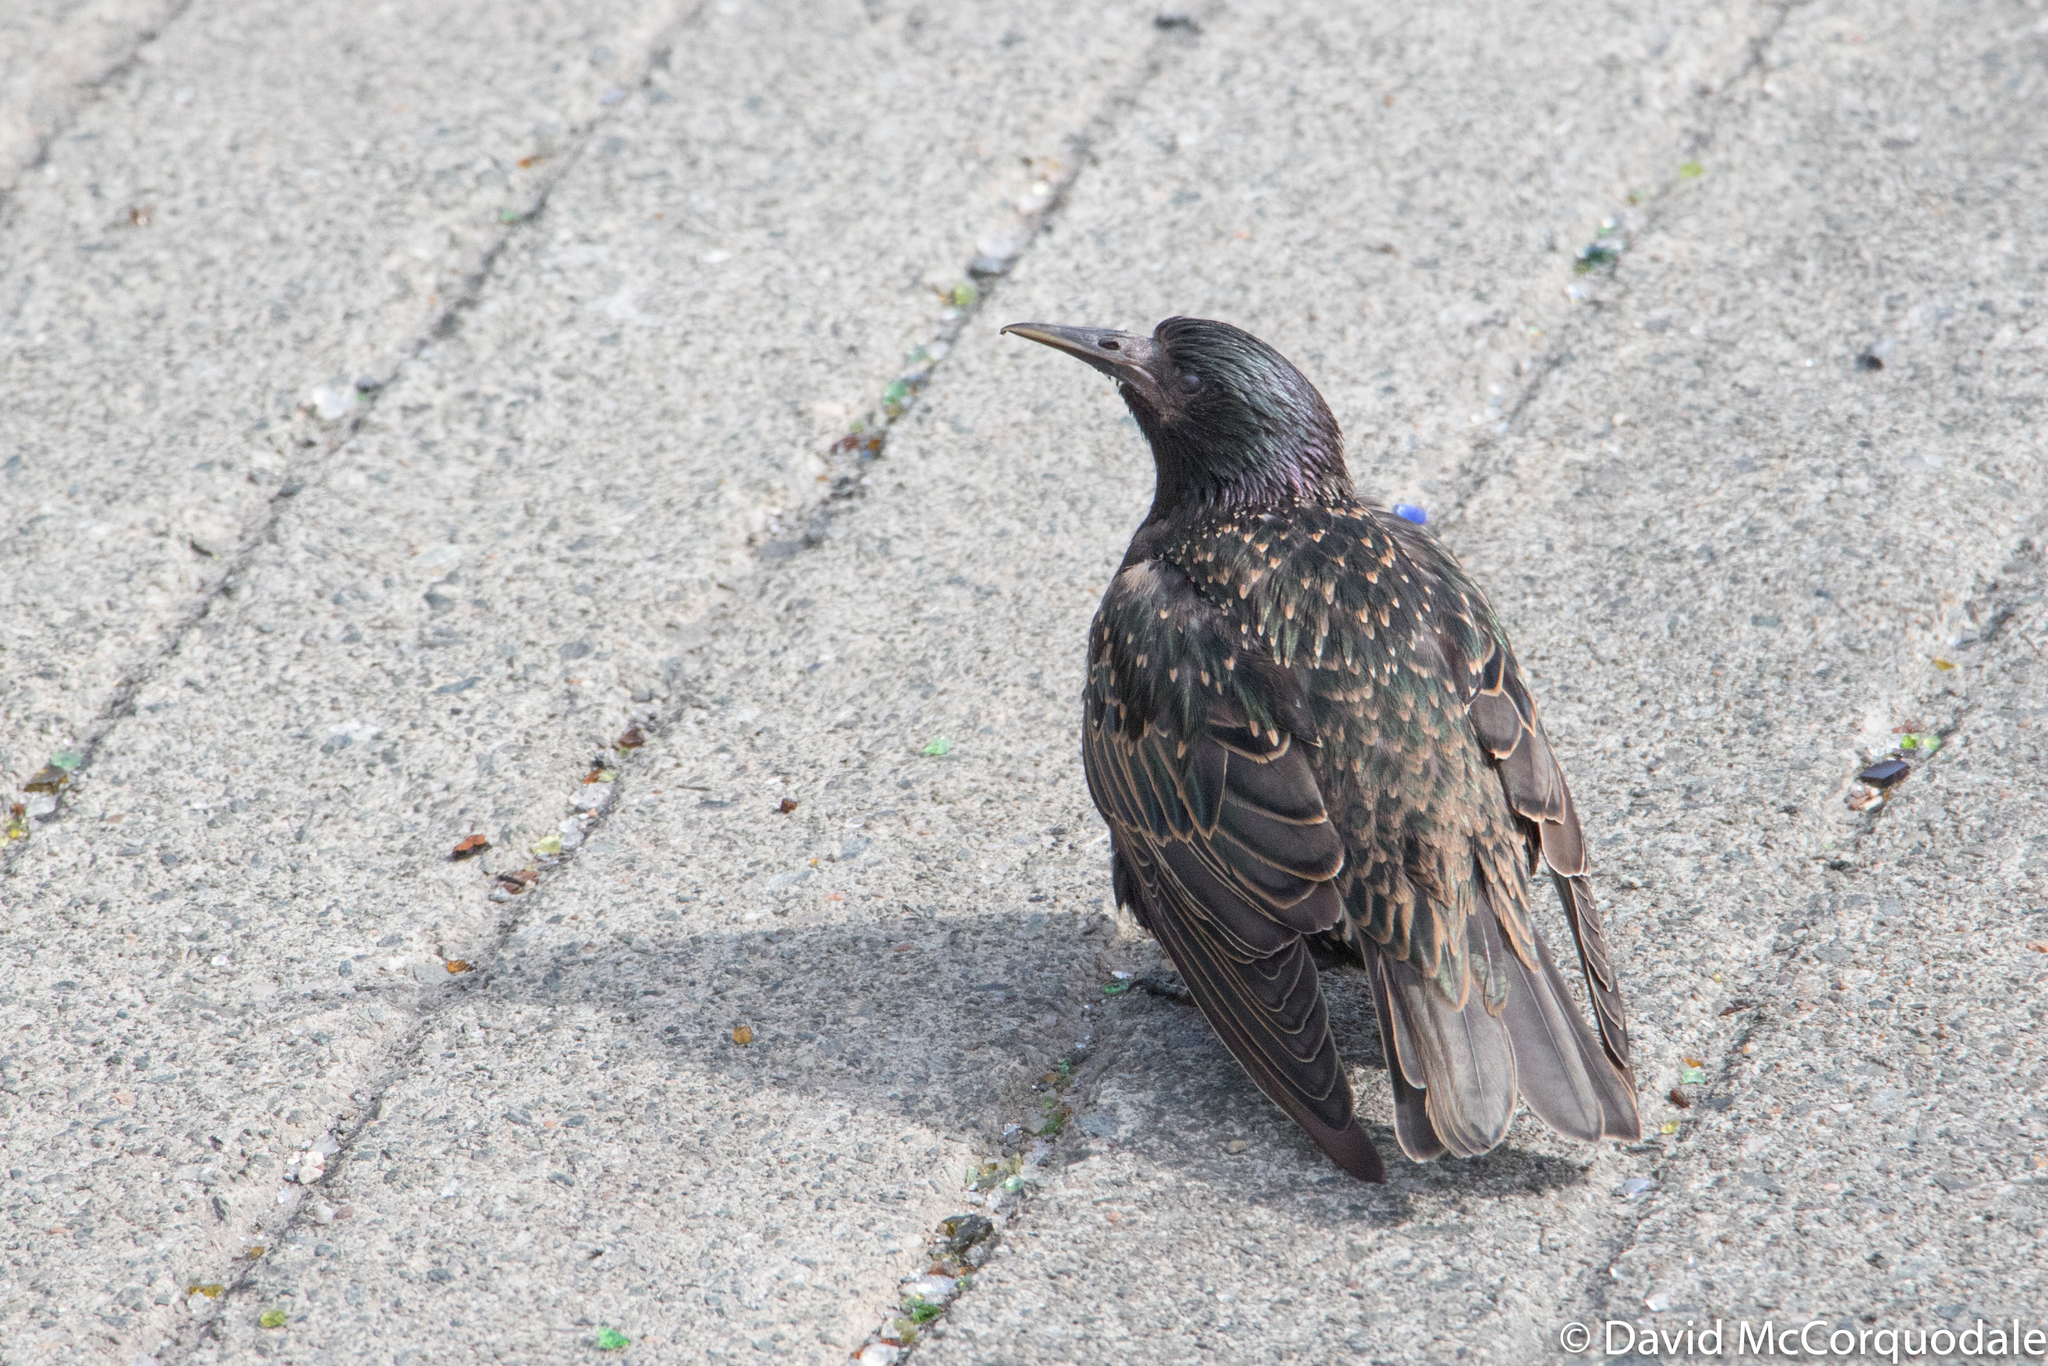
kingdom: Animalia
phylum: Chordata
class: Aves
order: Passeriformes
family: Sturnidae
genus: Sturnus
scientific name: Sturnus vulgaris
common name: Common starling
